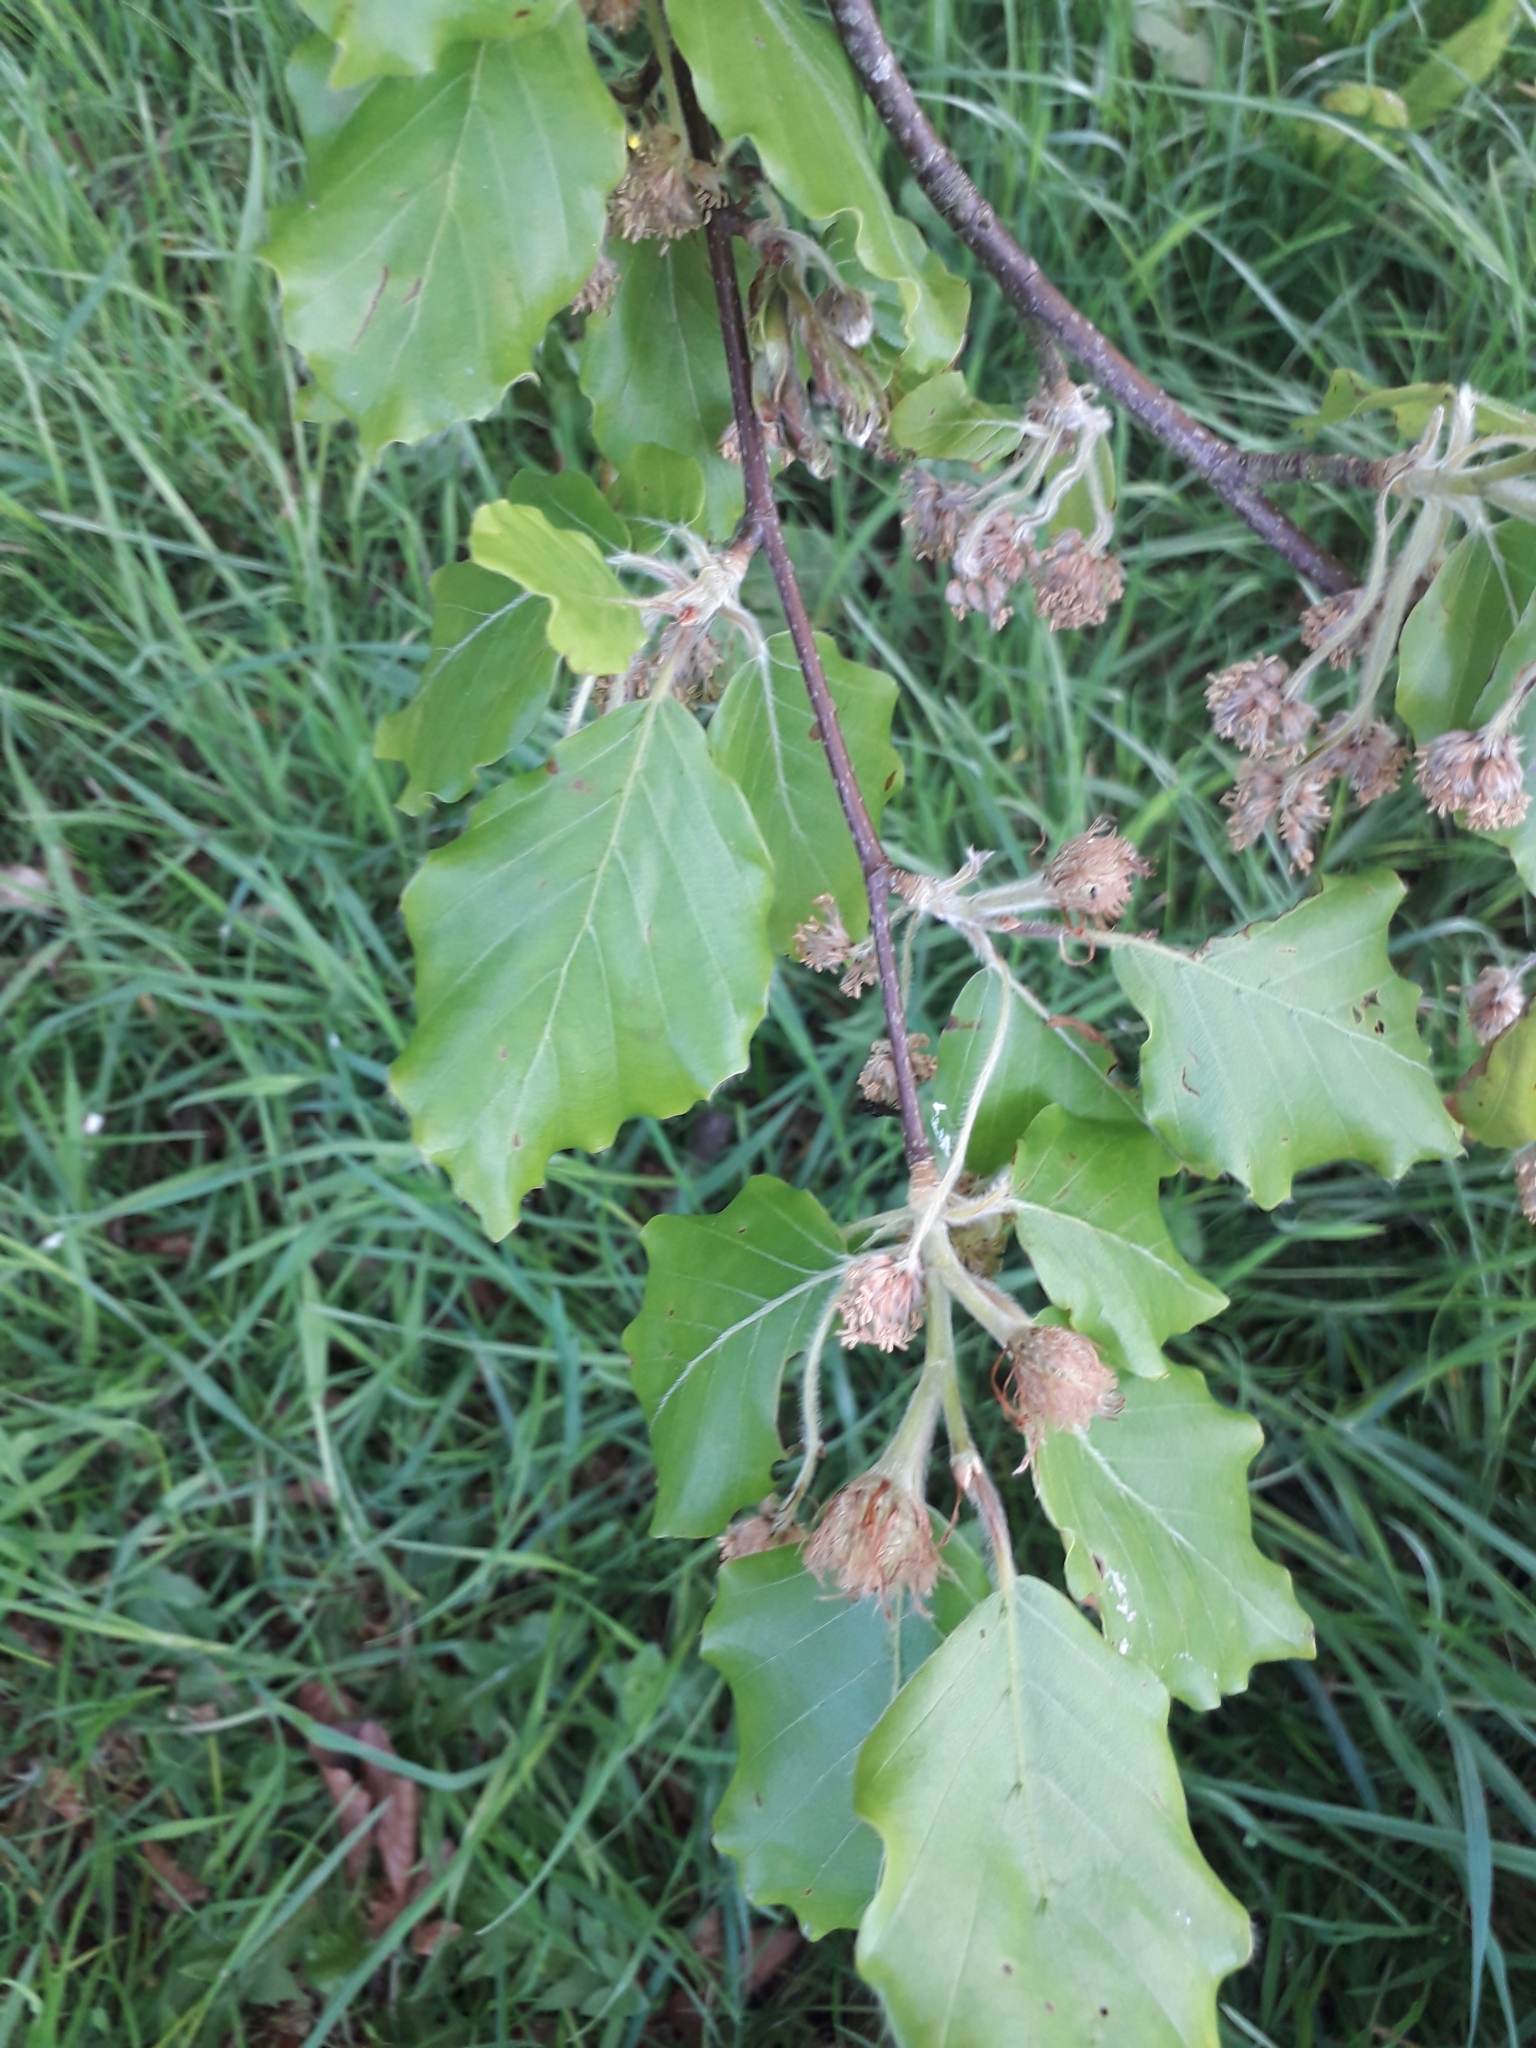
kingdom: Plantae
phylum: Tracheophyta
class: Magnoliopsida
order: Fagales
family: Fagaceae
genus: Fagus
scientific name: Fagus sylvatica
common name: Beech
